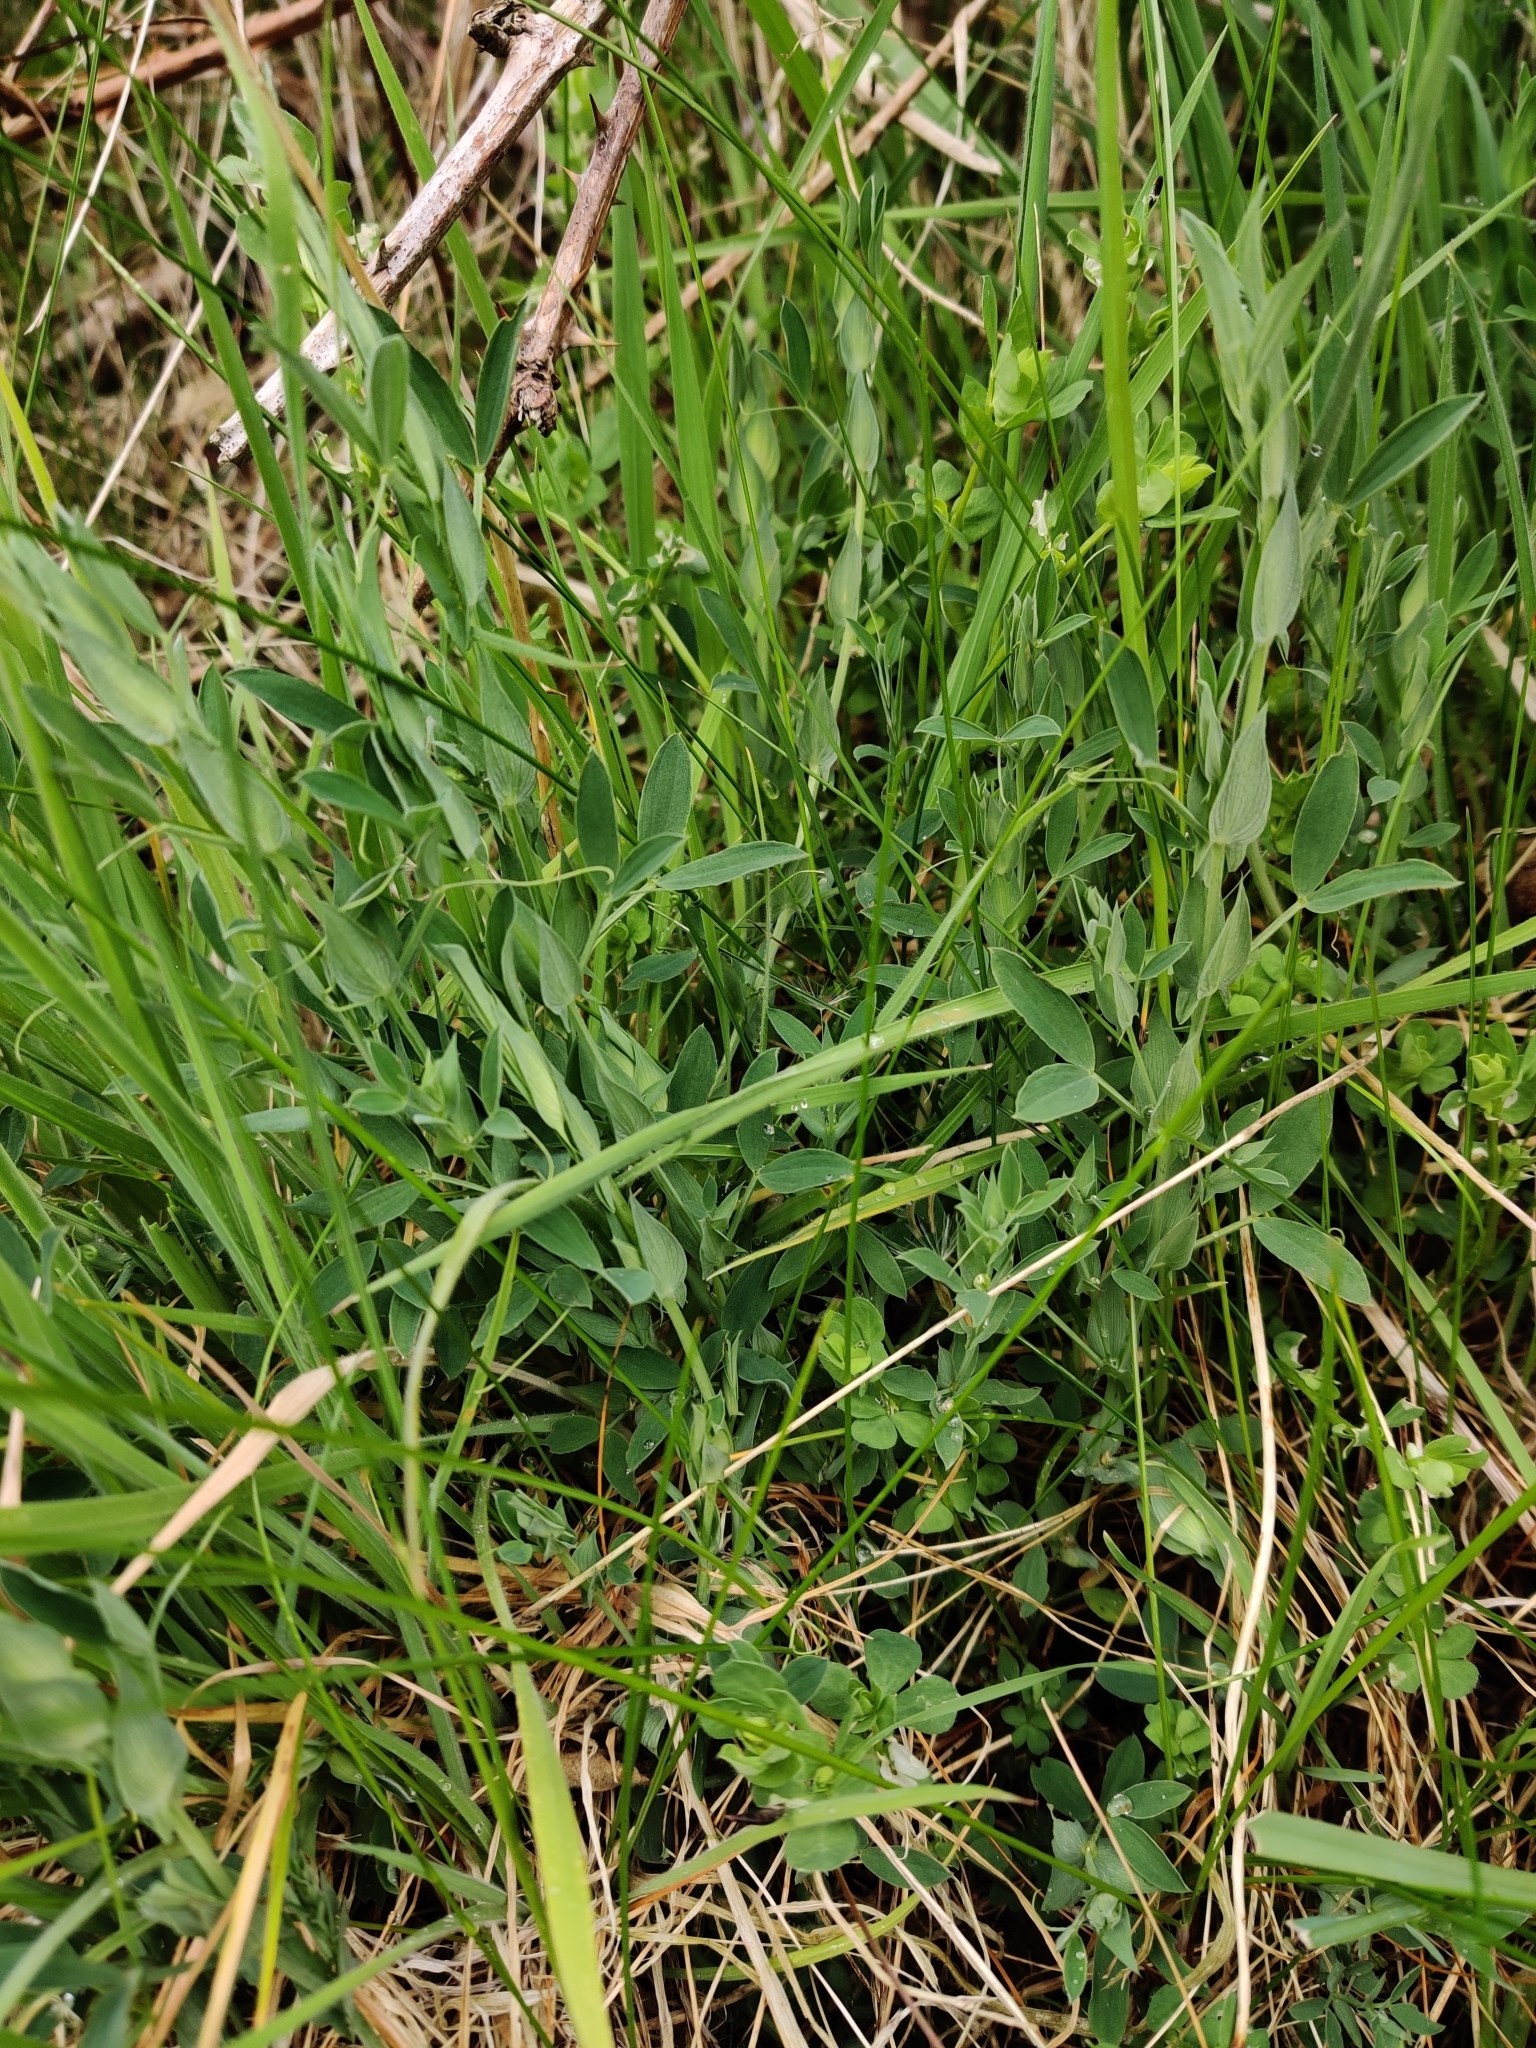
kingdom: Plantae
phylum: Tracheophyta
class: Magnoliopsida
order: Fabales
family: Fabaceae
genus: Lathyrus
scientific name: Lathyrus pratensis
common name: Meadow vetchling
